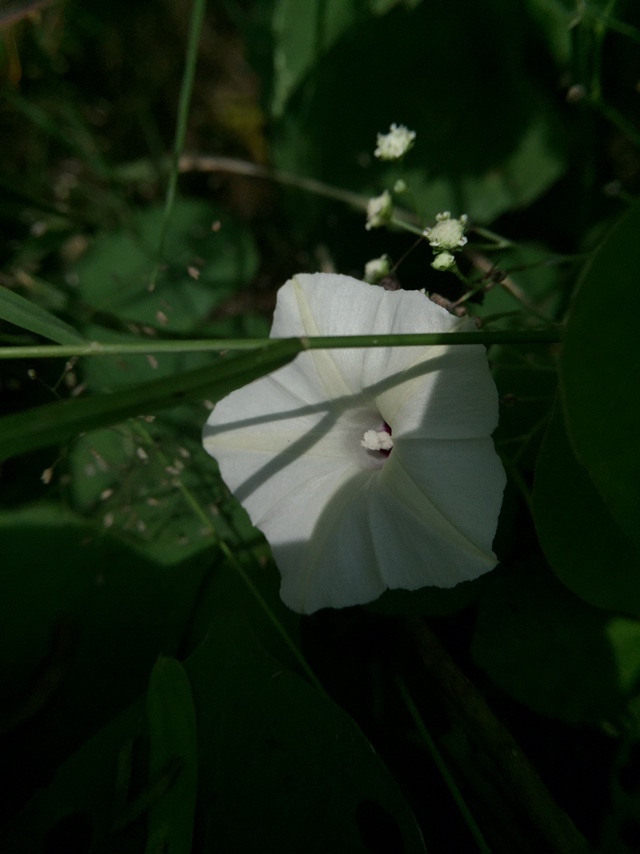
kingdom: Plantae
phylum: Tracheophyta
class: Magnoliopsida
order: Solanales
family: Convolvulaceae
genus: Ipomoea
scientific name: Ipomoea obscura
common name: Obscure morning-glory
